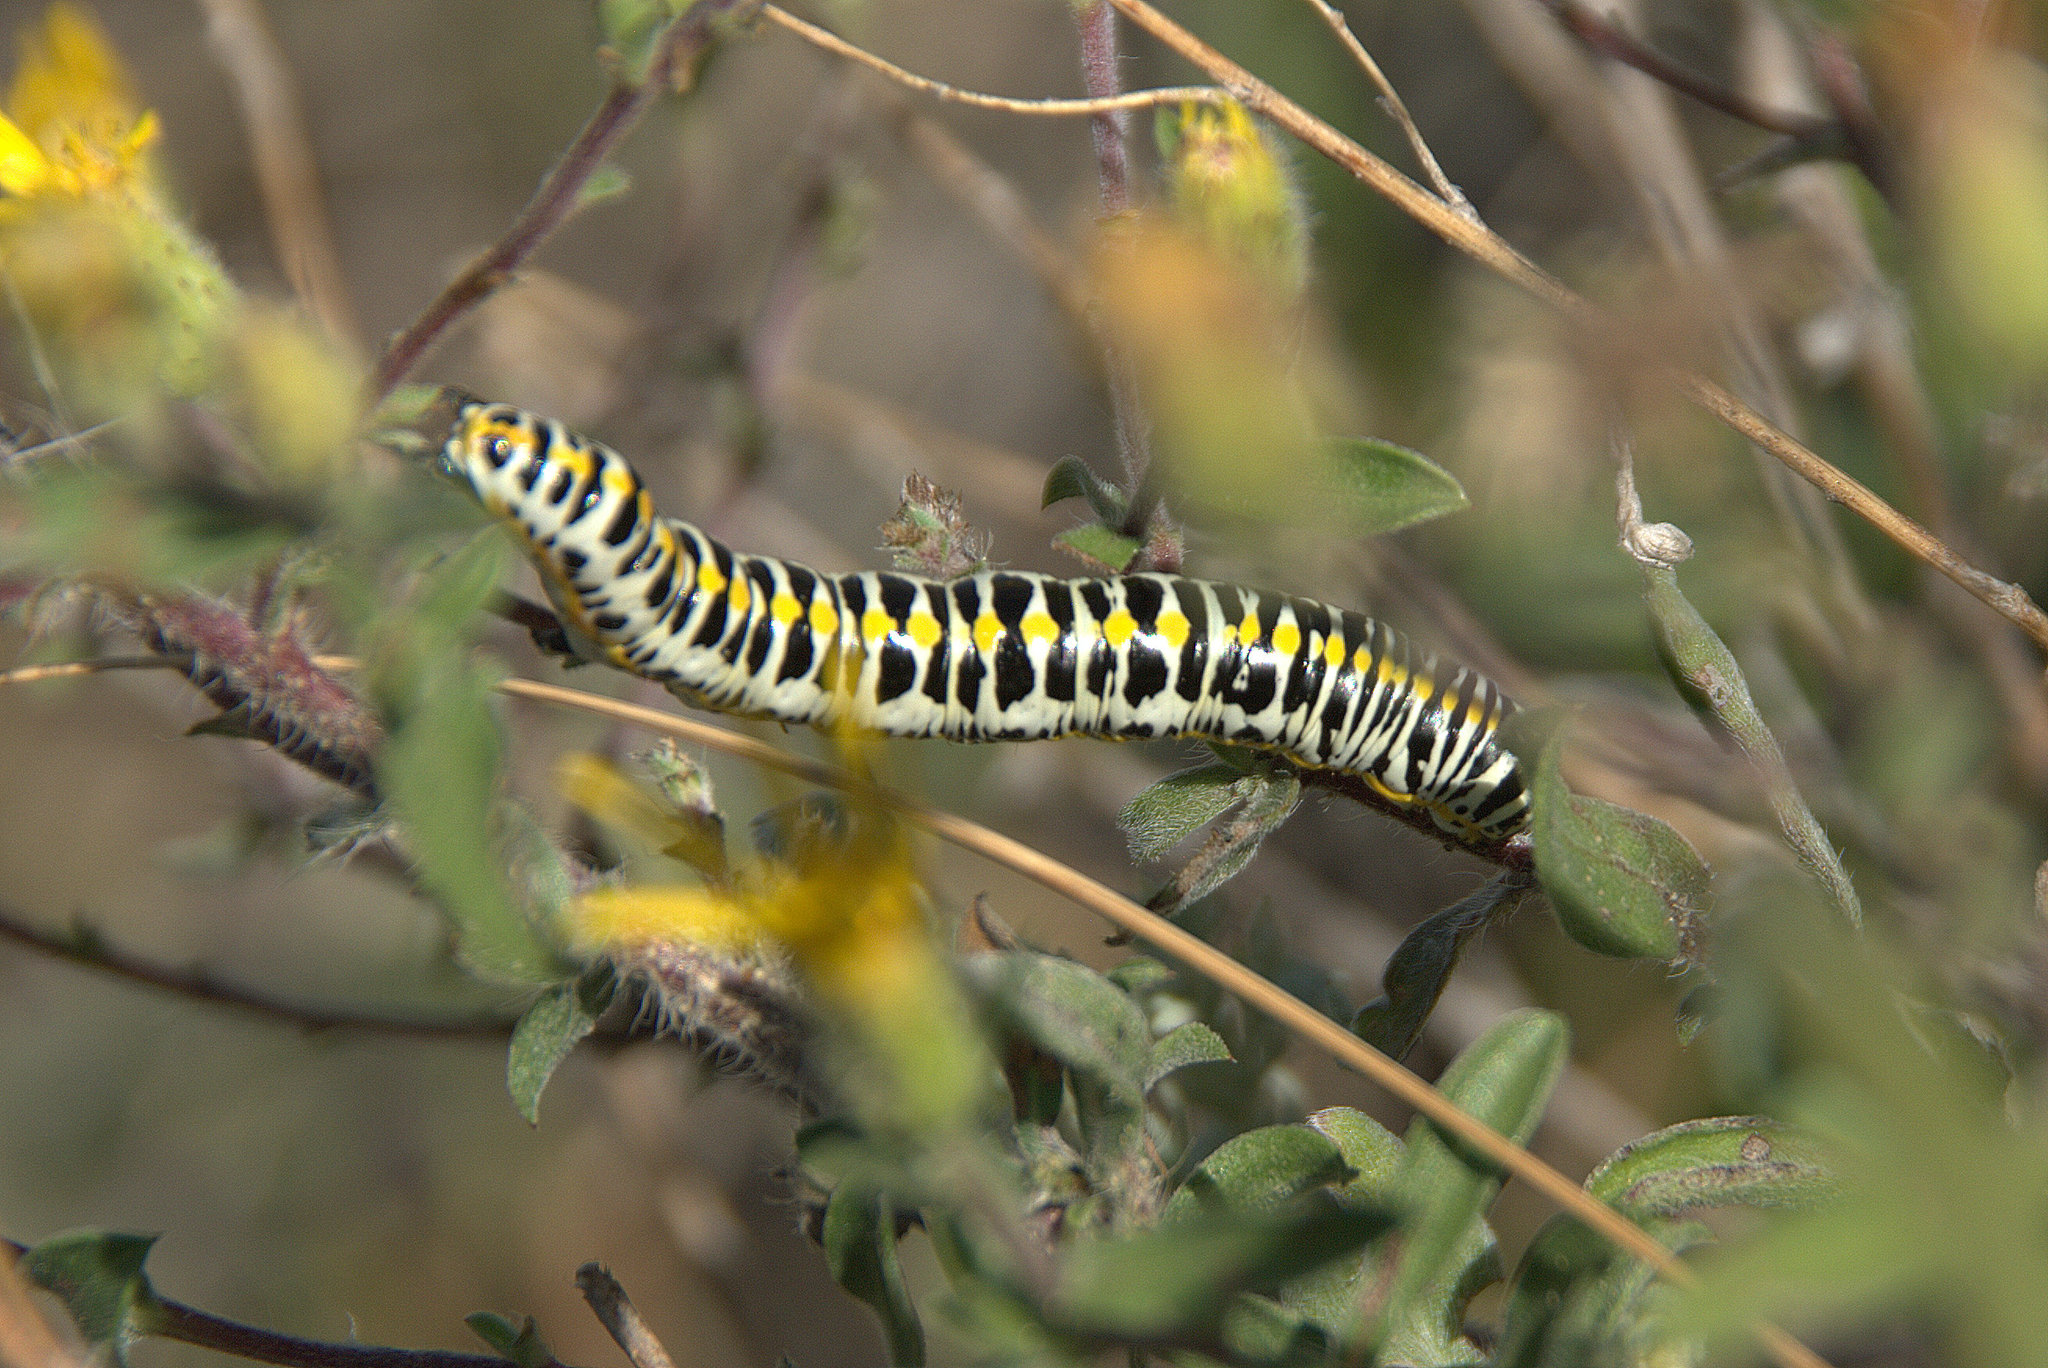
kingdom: Animalia
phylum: Arthropoda
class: Insecta
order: Lepidoptera
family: Noctuidae
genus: Cucullia
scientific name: Cucullia speyeri
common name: Speyer's cucullia moth
